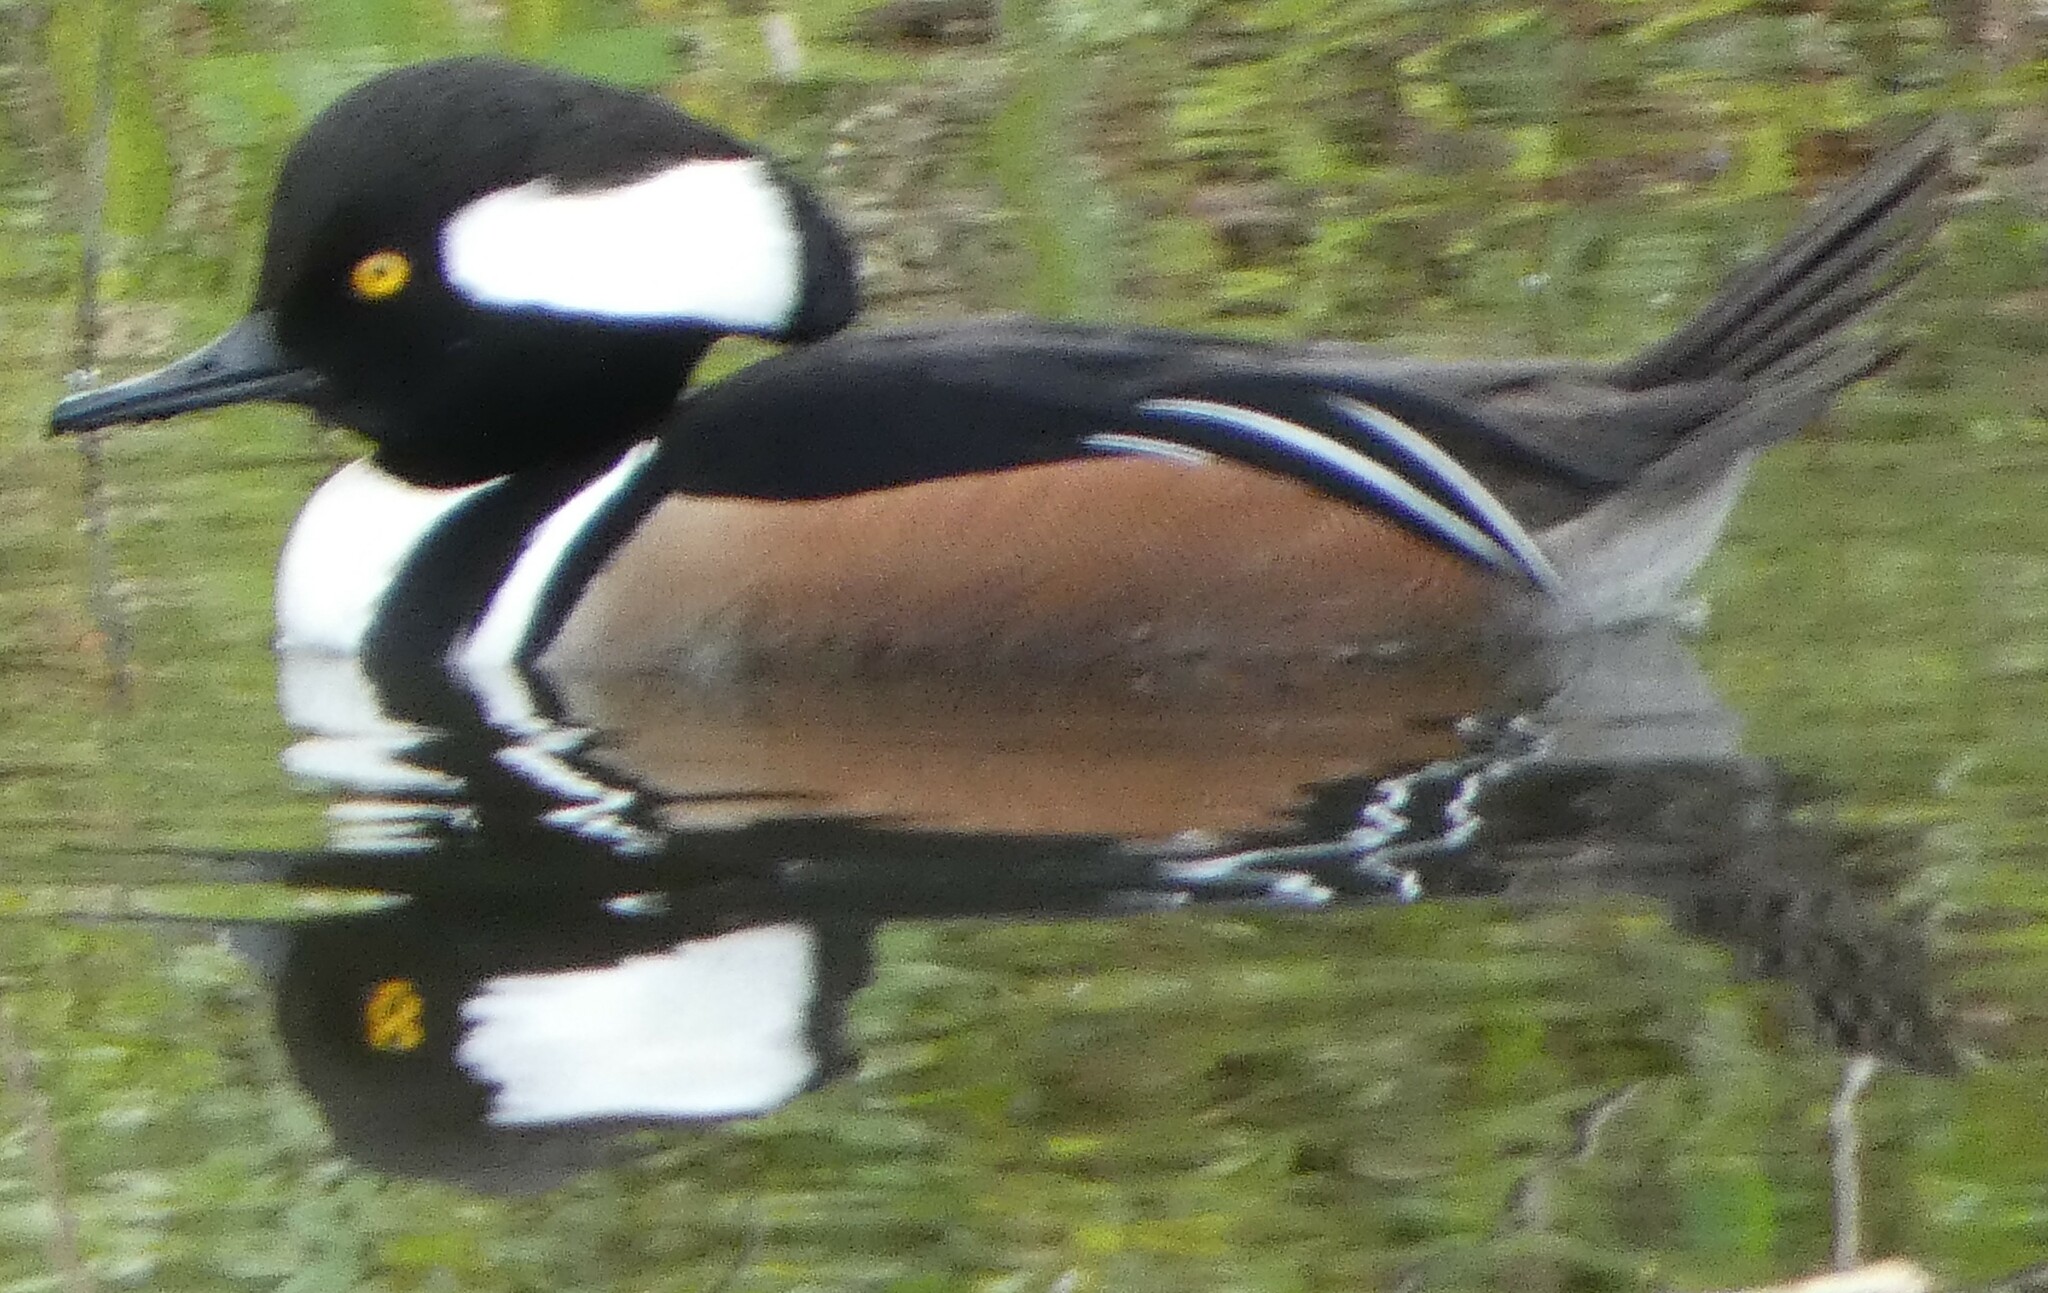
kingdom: Animalia
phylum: Chordata
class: Aves
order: Anseriformes
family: Anatidae
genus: Lophodytes
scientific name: Lophodytes cucullatus
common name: Hooded merganser
